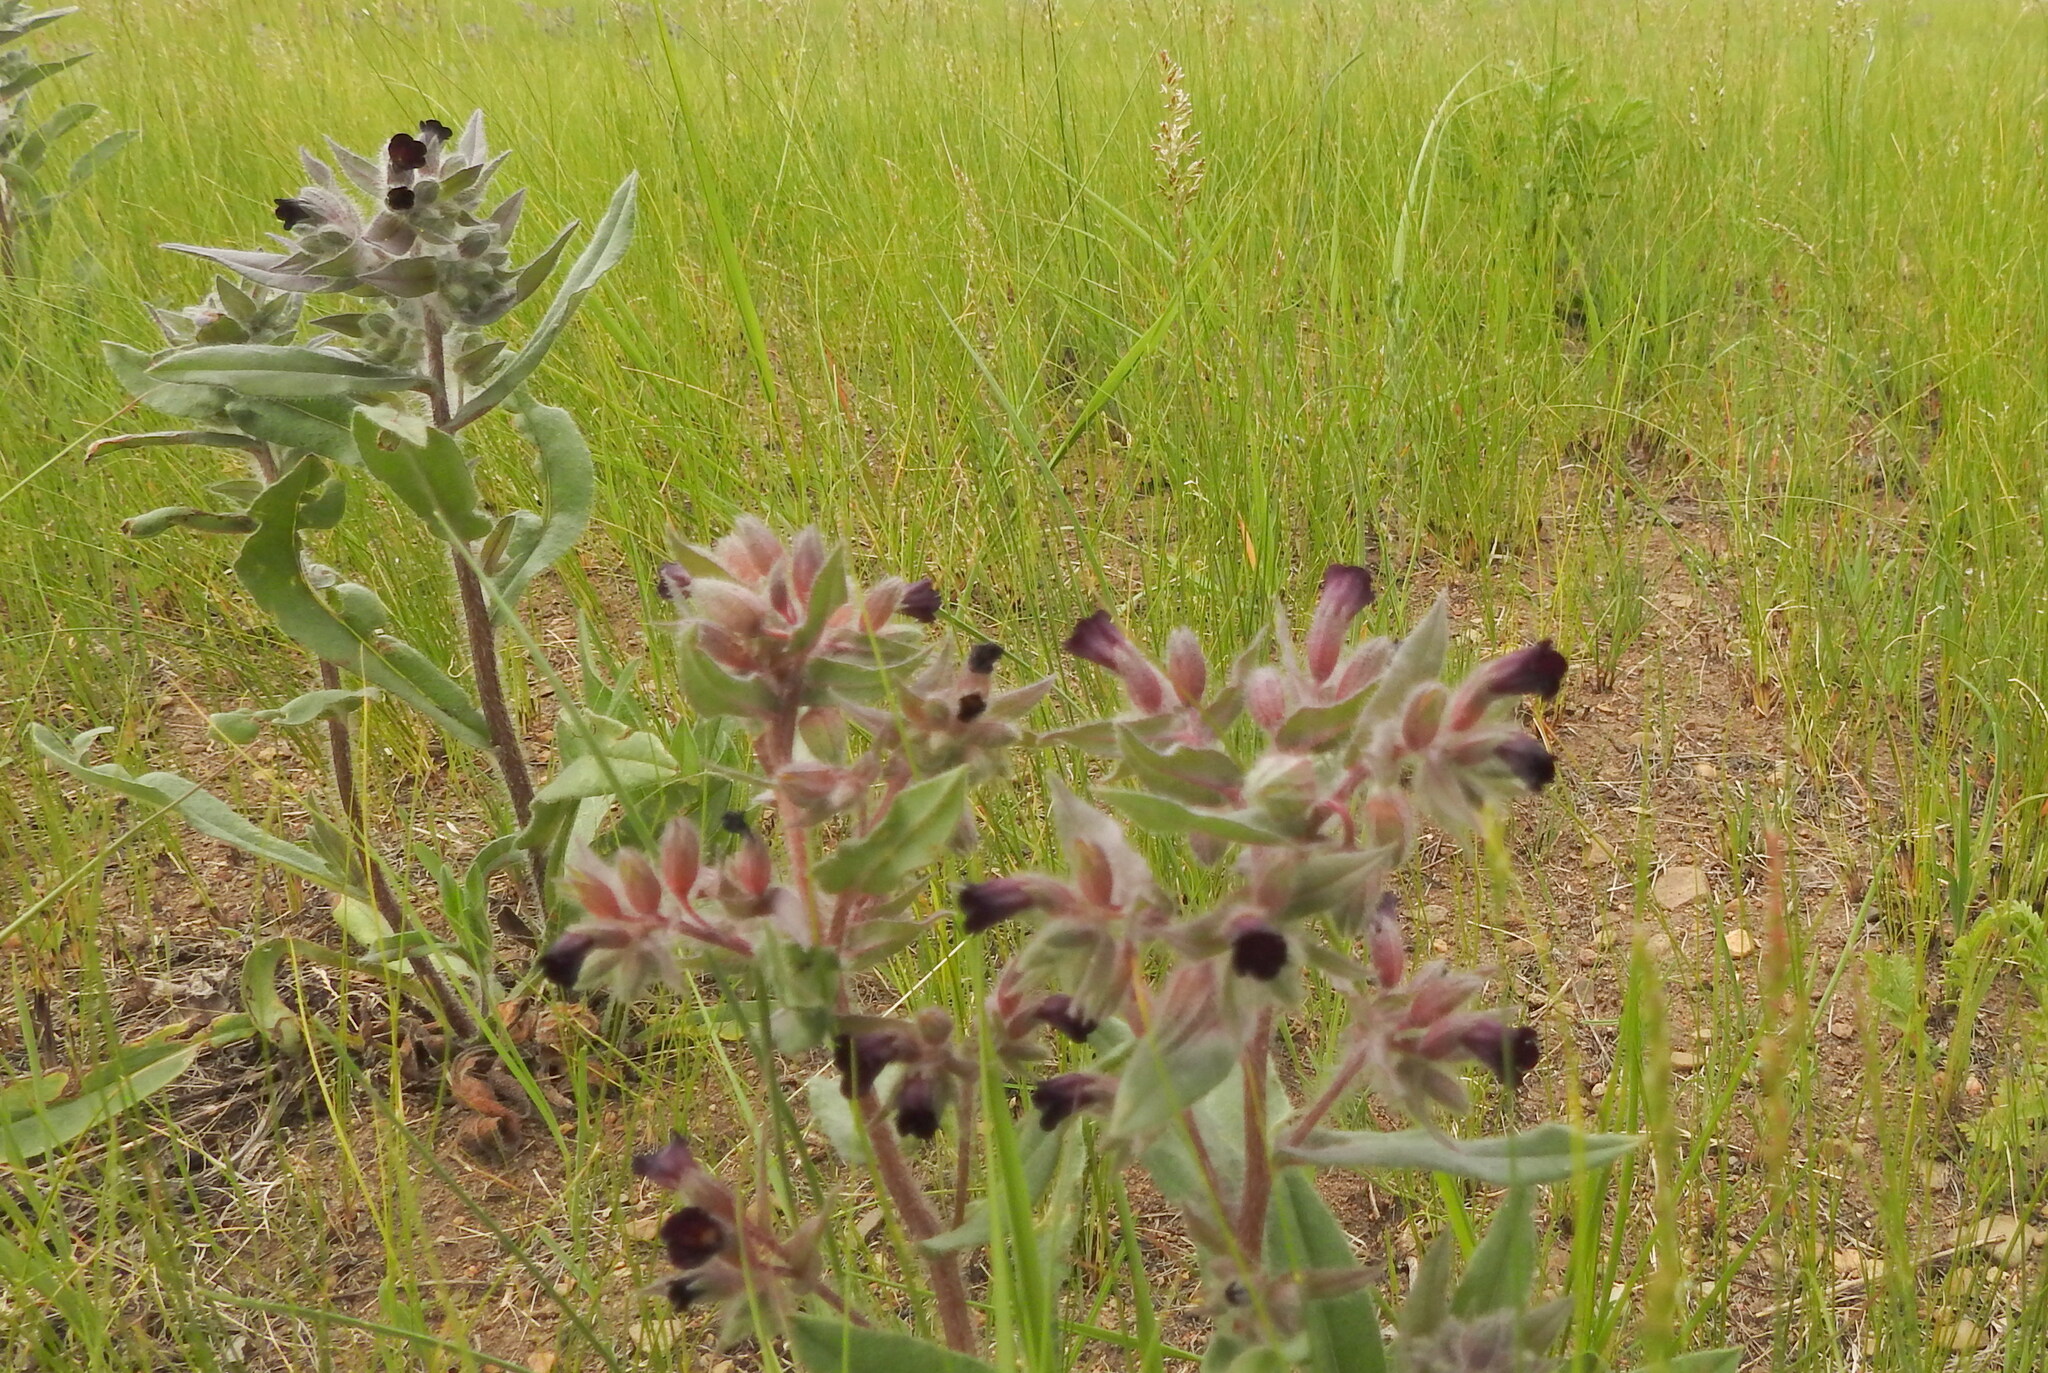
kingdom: Plantae
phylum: Tracheophyta
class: Magnoliopsida
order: Boraginales
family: Boraginaceae
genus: Nonea
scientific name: Nonea pulla
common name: Brown nonea
